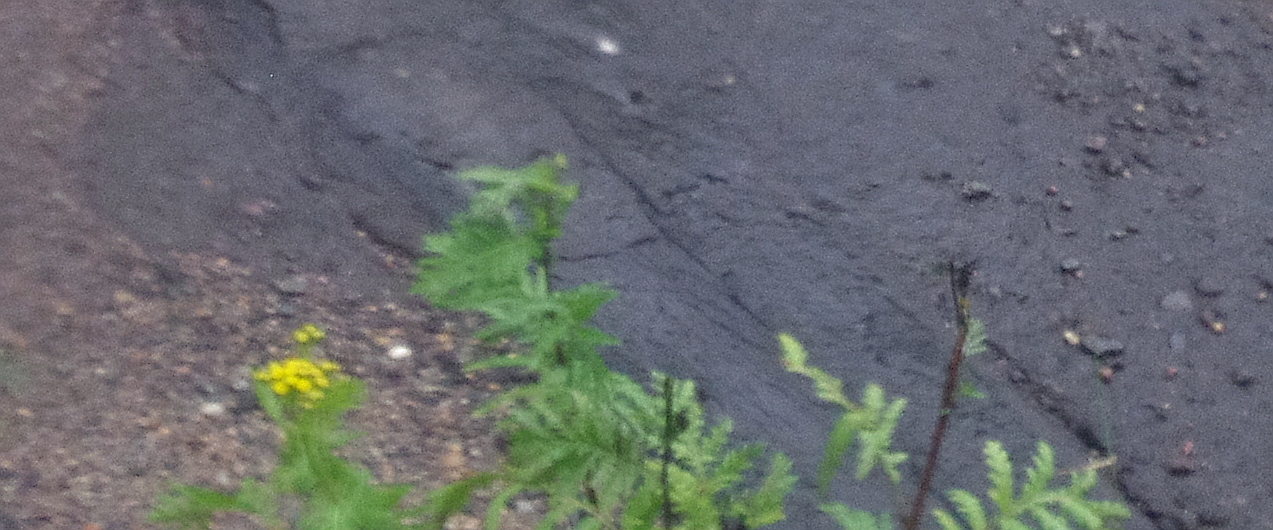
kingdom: Plantae
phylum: Tracheophyta
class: Magnoliopsida
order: Asterales
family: Asteraceae
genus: Tanacetum
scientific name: Tanacetum vulgare
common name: Common tansy
